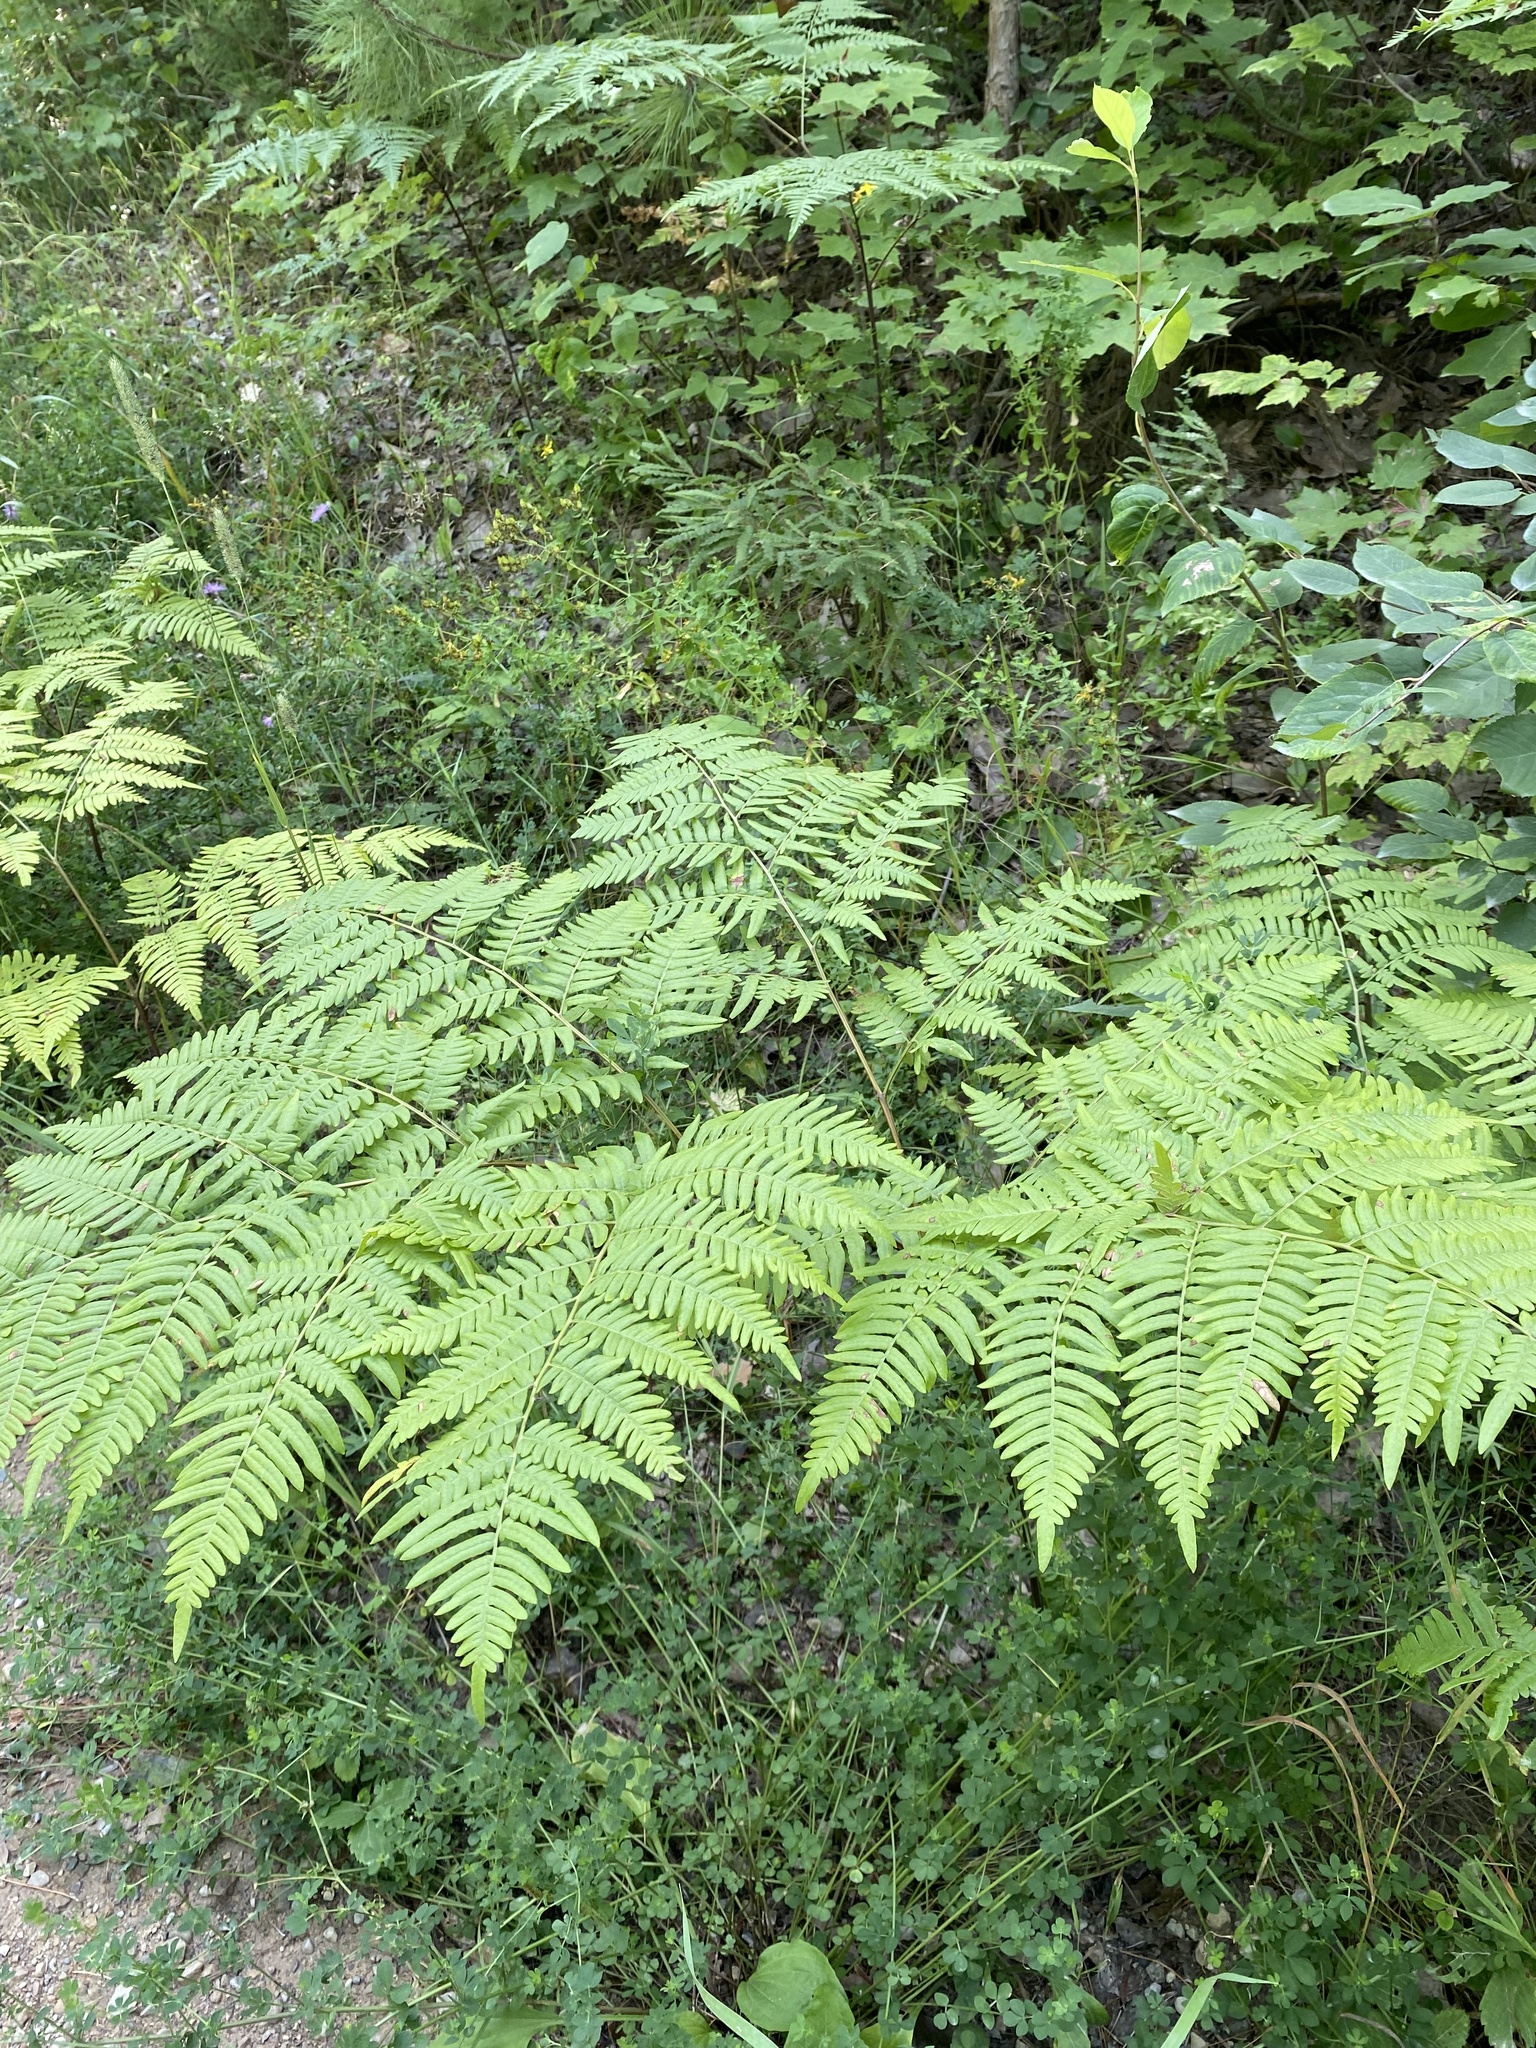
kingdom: Plantae
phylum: Tracheophyta
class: Polypodiopsida
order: Polypodiales
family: Dennstaedtiaceae
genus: Pteridium
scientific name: Pteridium aquilinum
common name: Bracken
